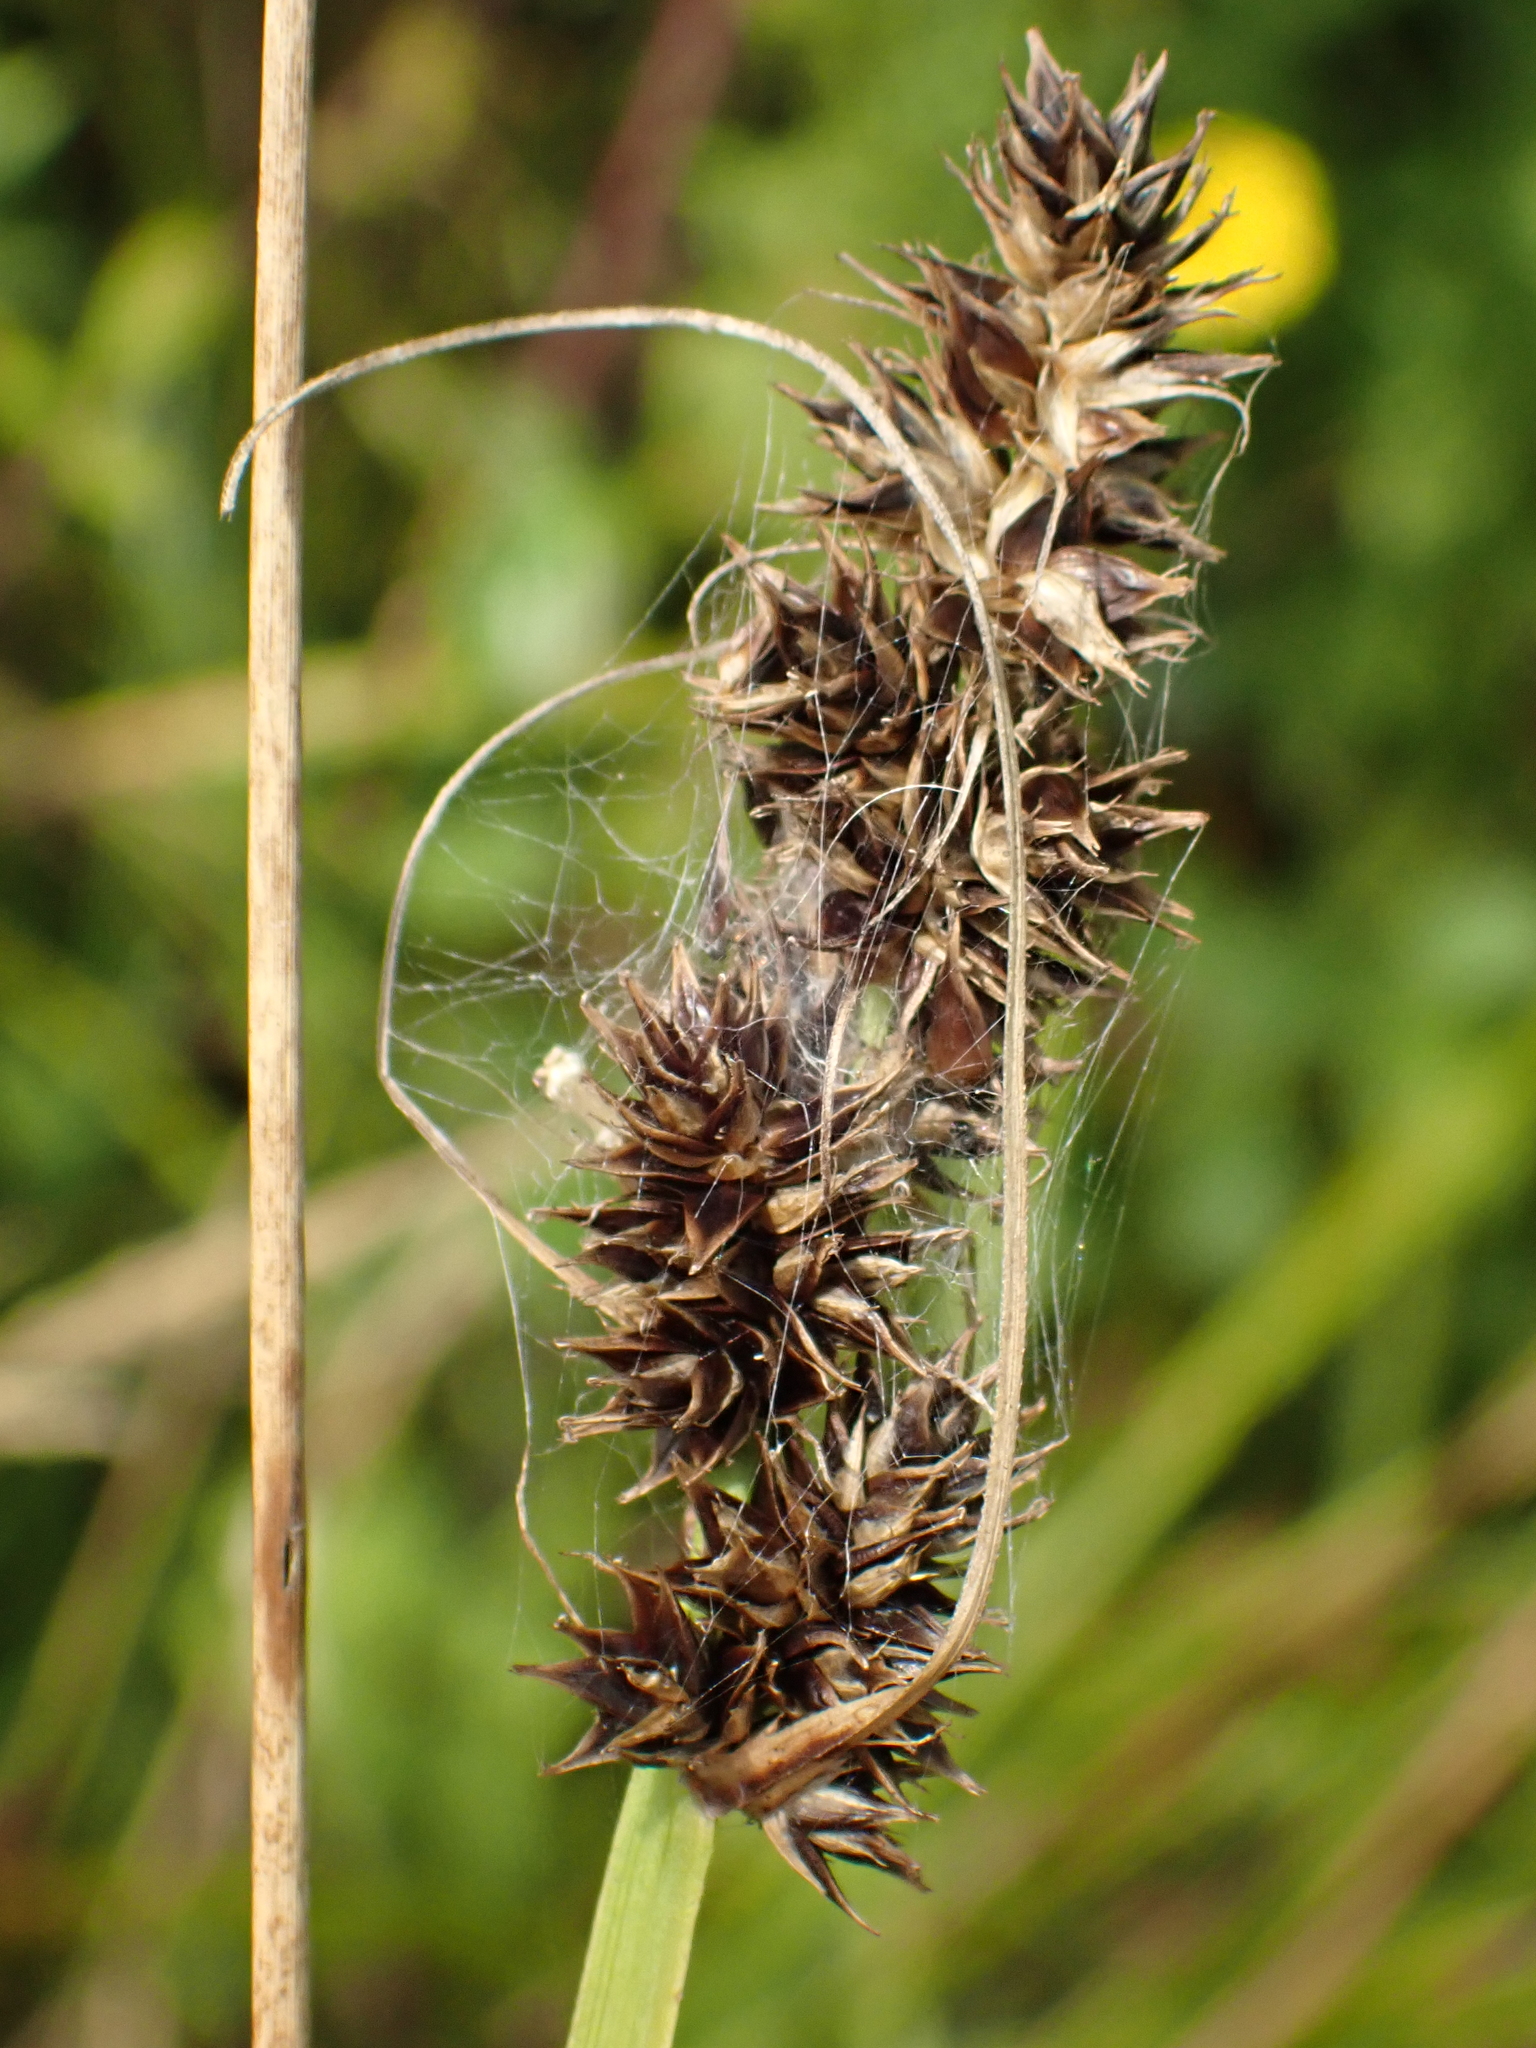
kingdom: Plantae
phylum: Tracheophyta
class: Liliopsida
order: Poales
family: Cyperaceae
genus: Carex
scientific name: Carex otrubae
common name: False fox-sedge
